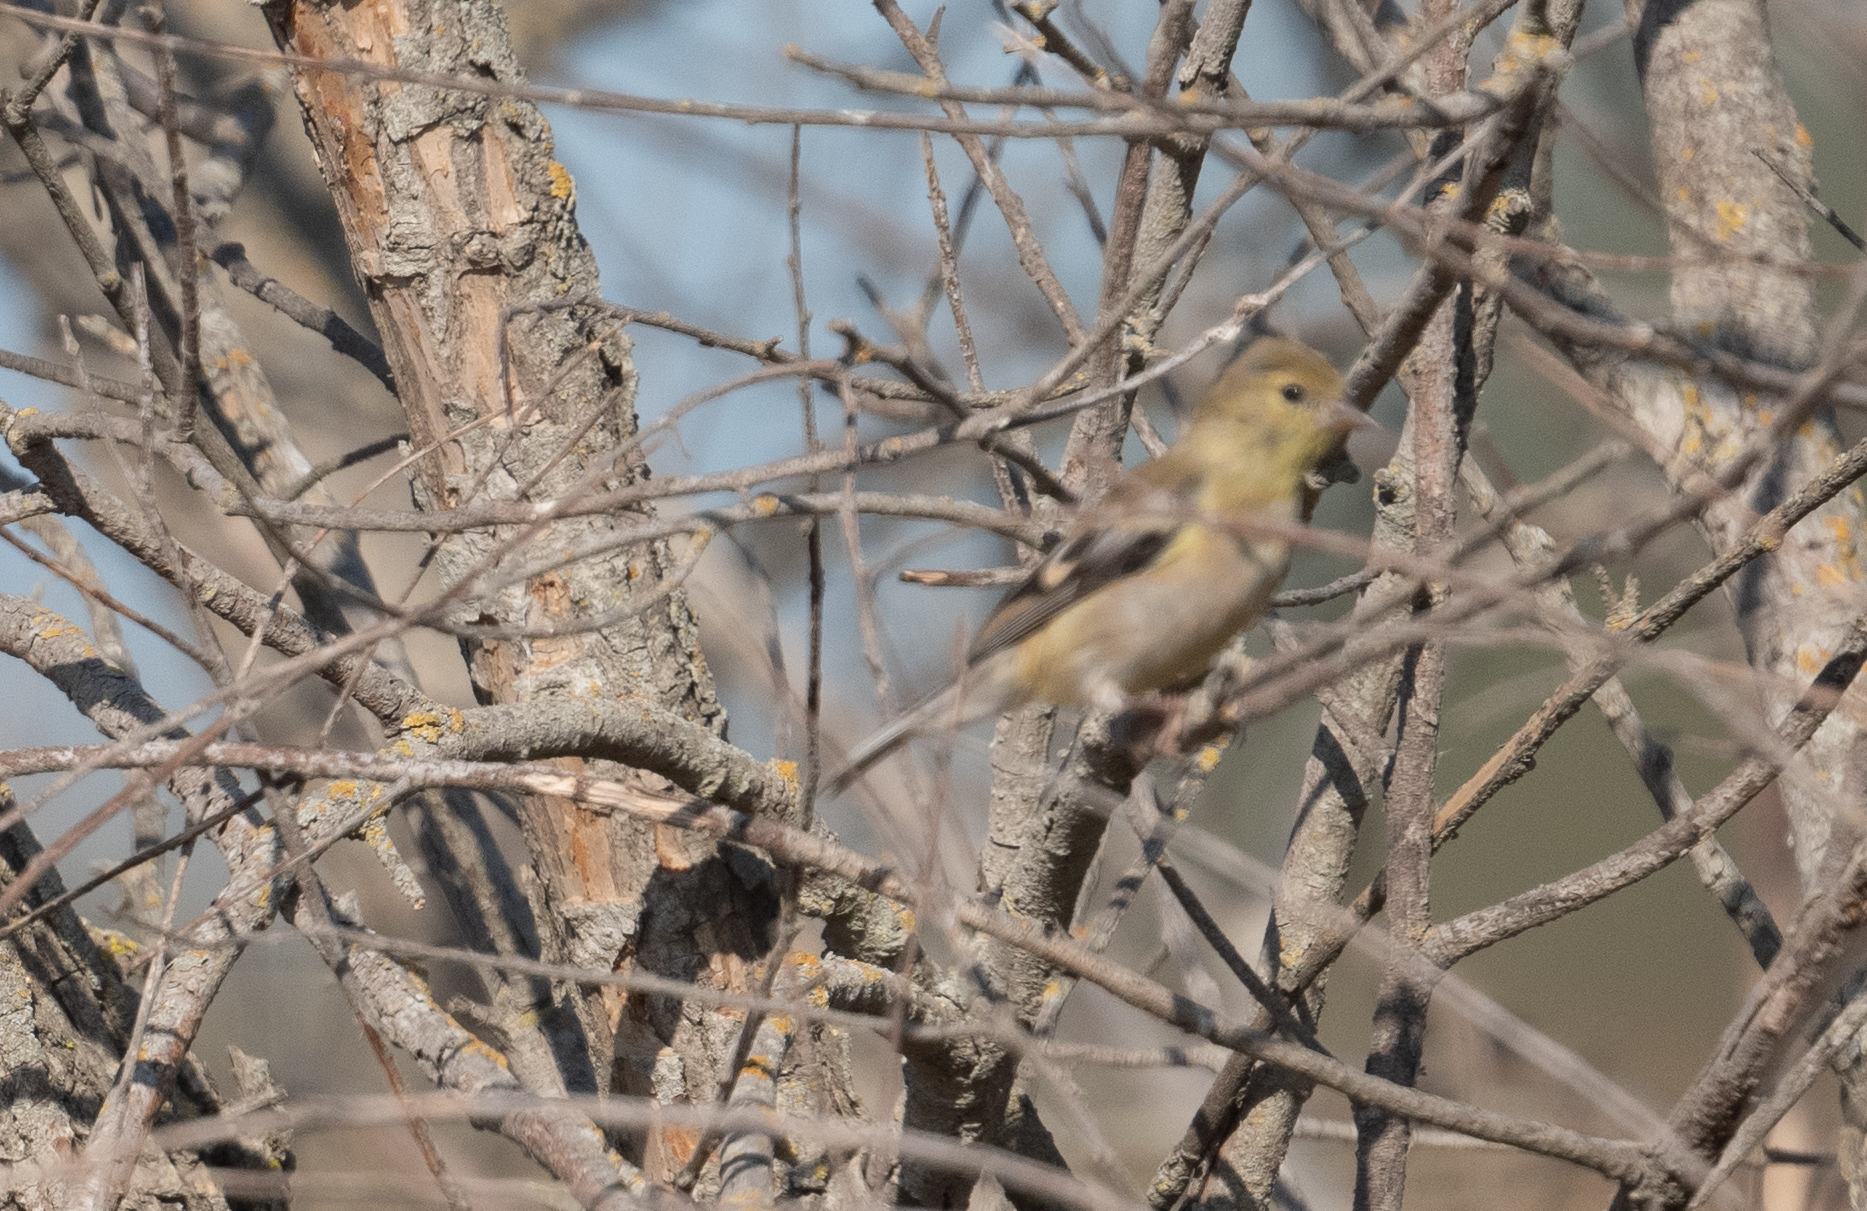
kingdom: Animalia
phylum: Chordata
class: Aves
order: Passeriformes
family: Fringillidae
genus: Spinus
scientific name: Spinus tristis
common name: American goldfinch
